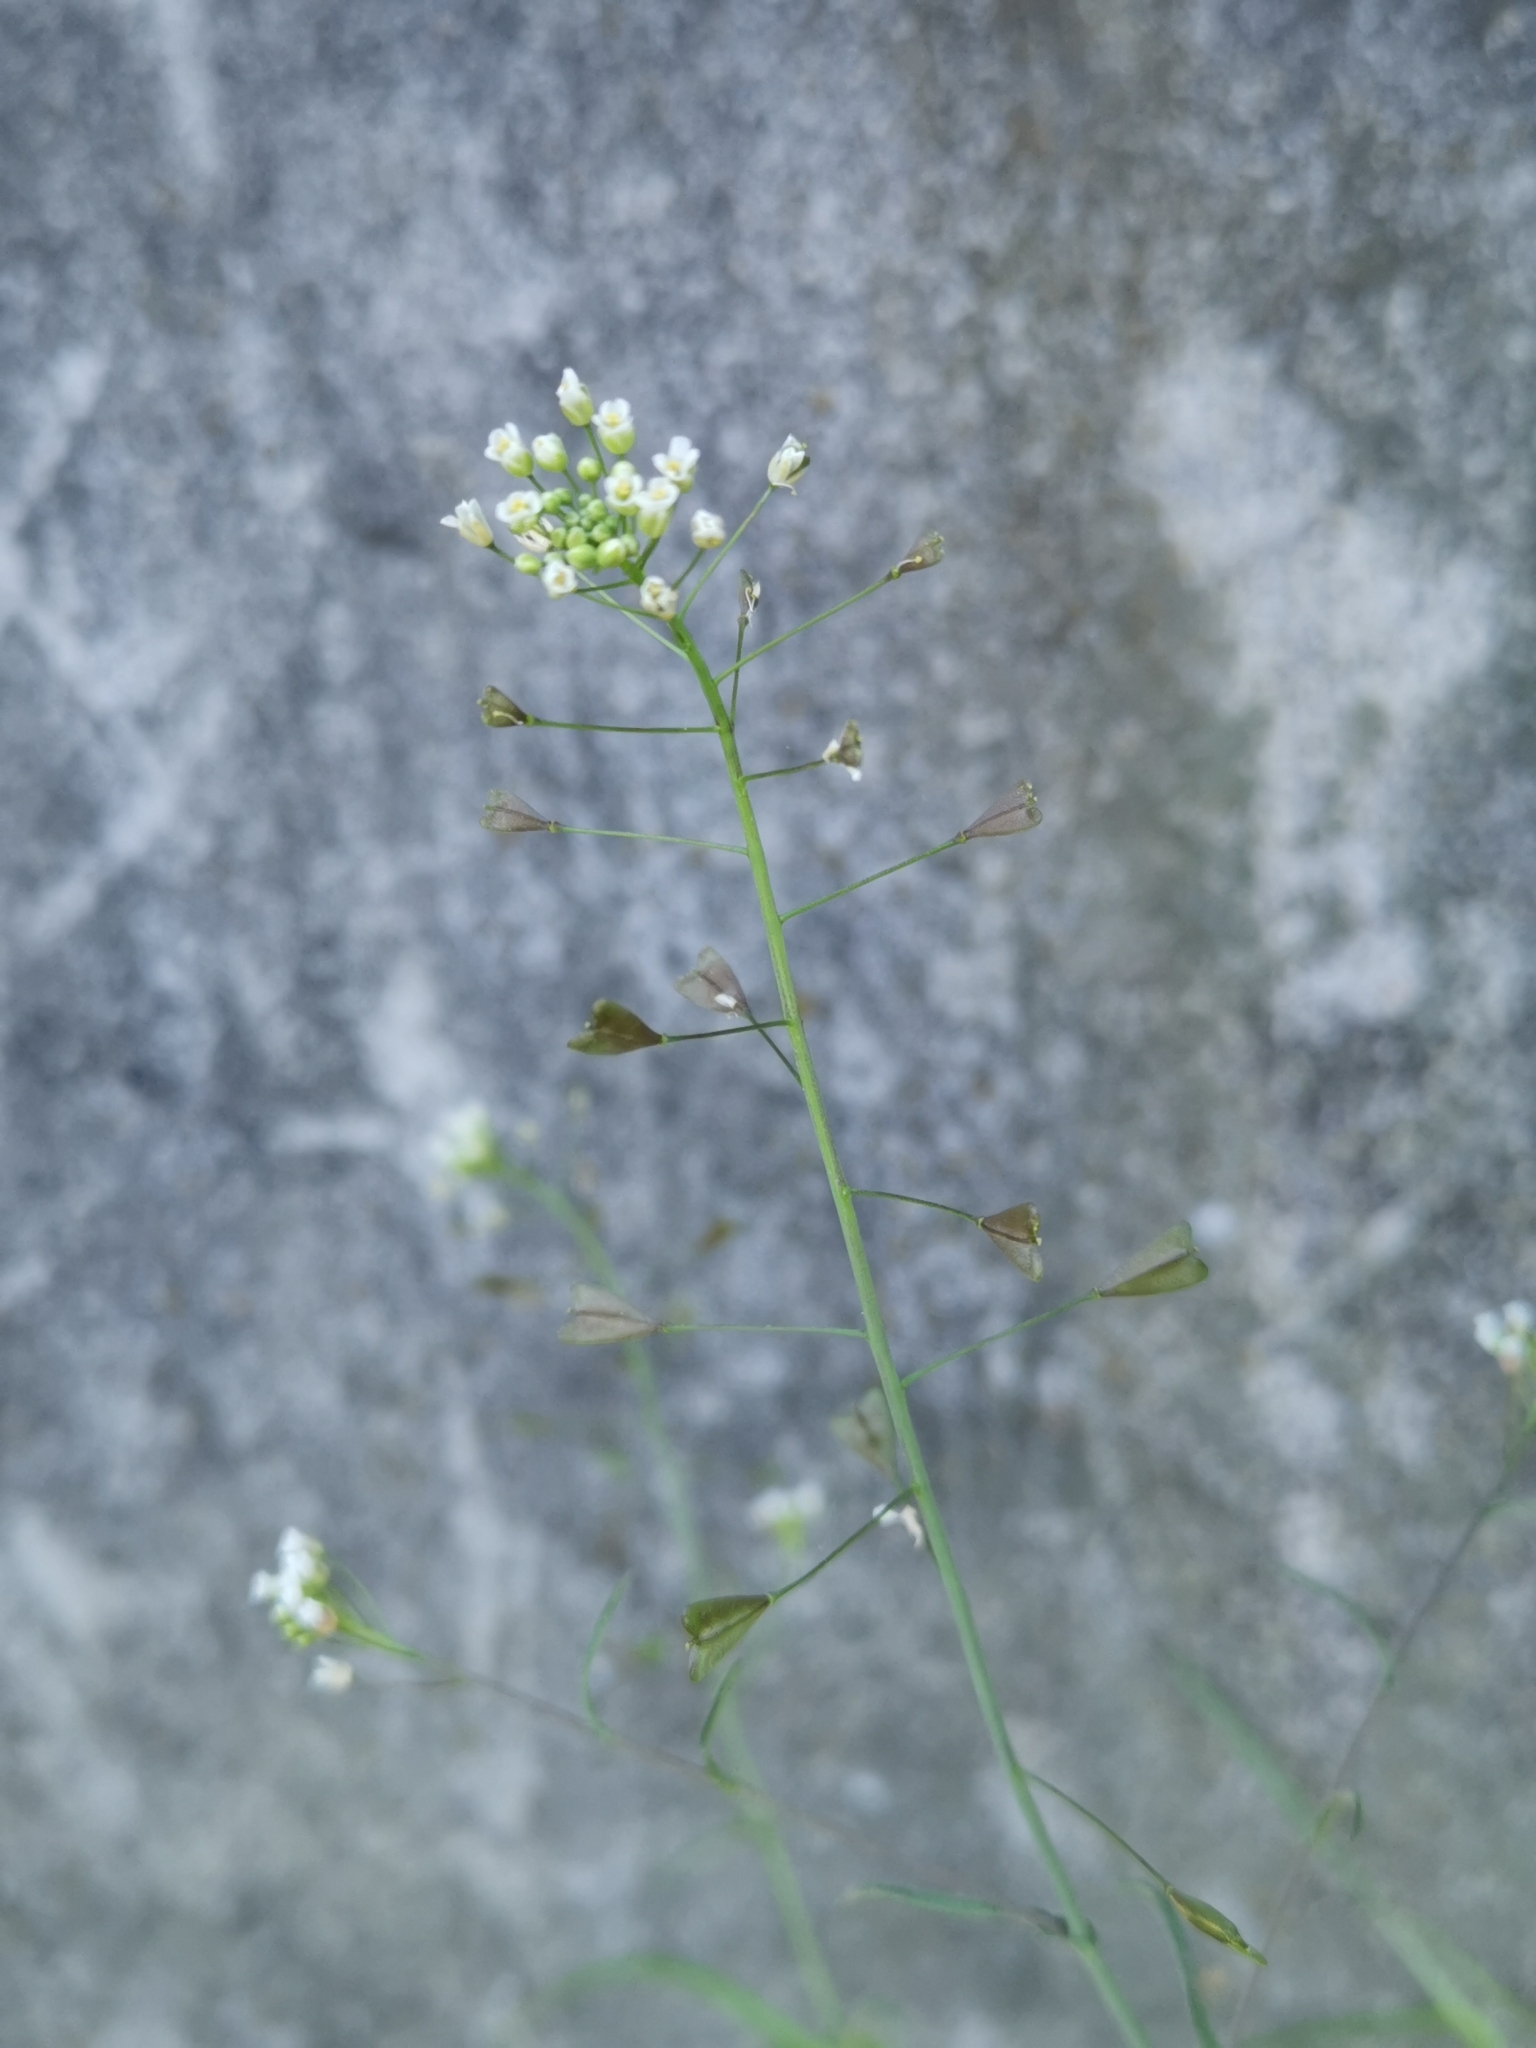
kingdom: Plantae
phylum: Tracheophyta
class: Magnoliopsida
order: Brassicales
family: Brassicaceae
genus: Capsella
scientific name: Capsella bursa-pastoris
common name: Shepherd's purse
